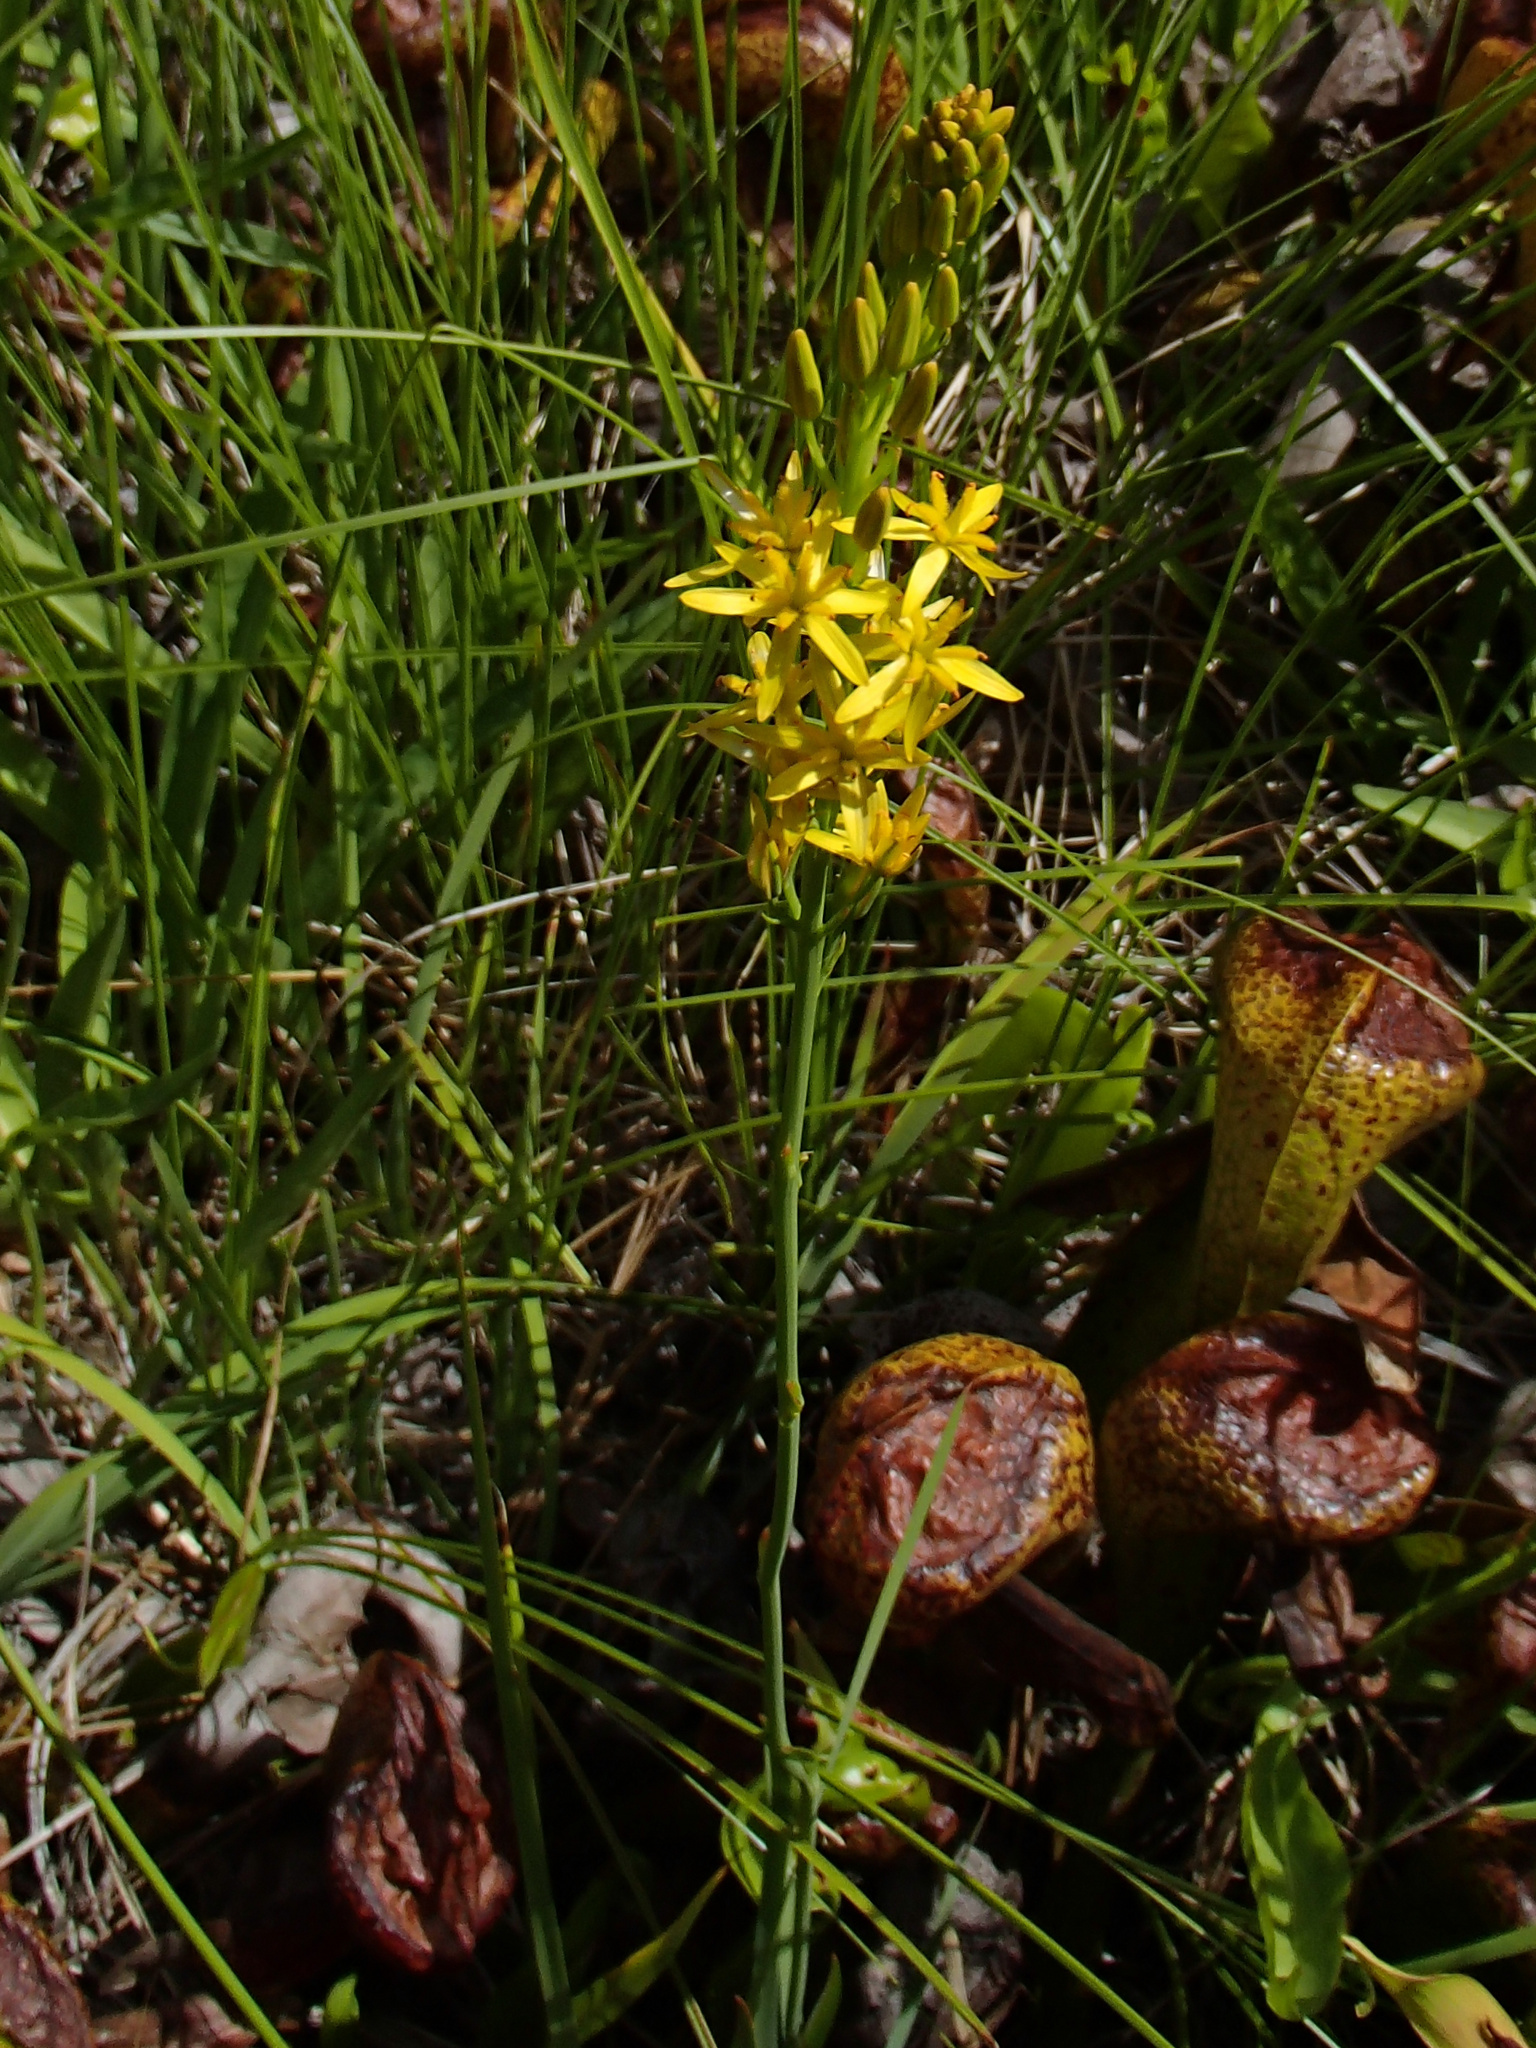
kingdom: Plantae
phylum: Tracheophyta
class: Liliopsida
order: Dioscoreales
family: Nartheciaceae
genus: Narthecium
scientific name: Narthecium californicum
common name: California bog-asphodel
